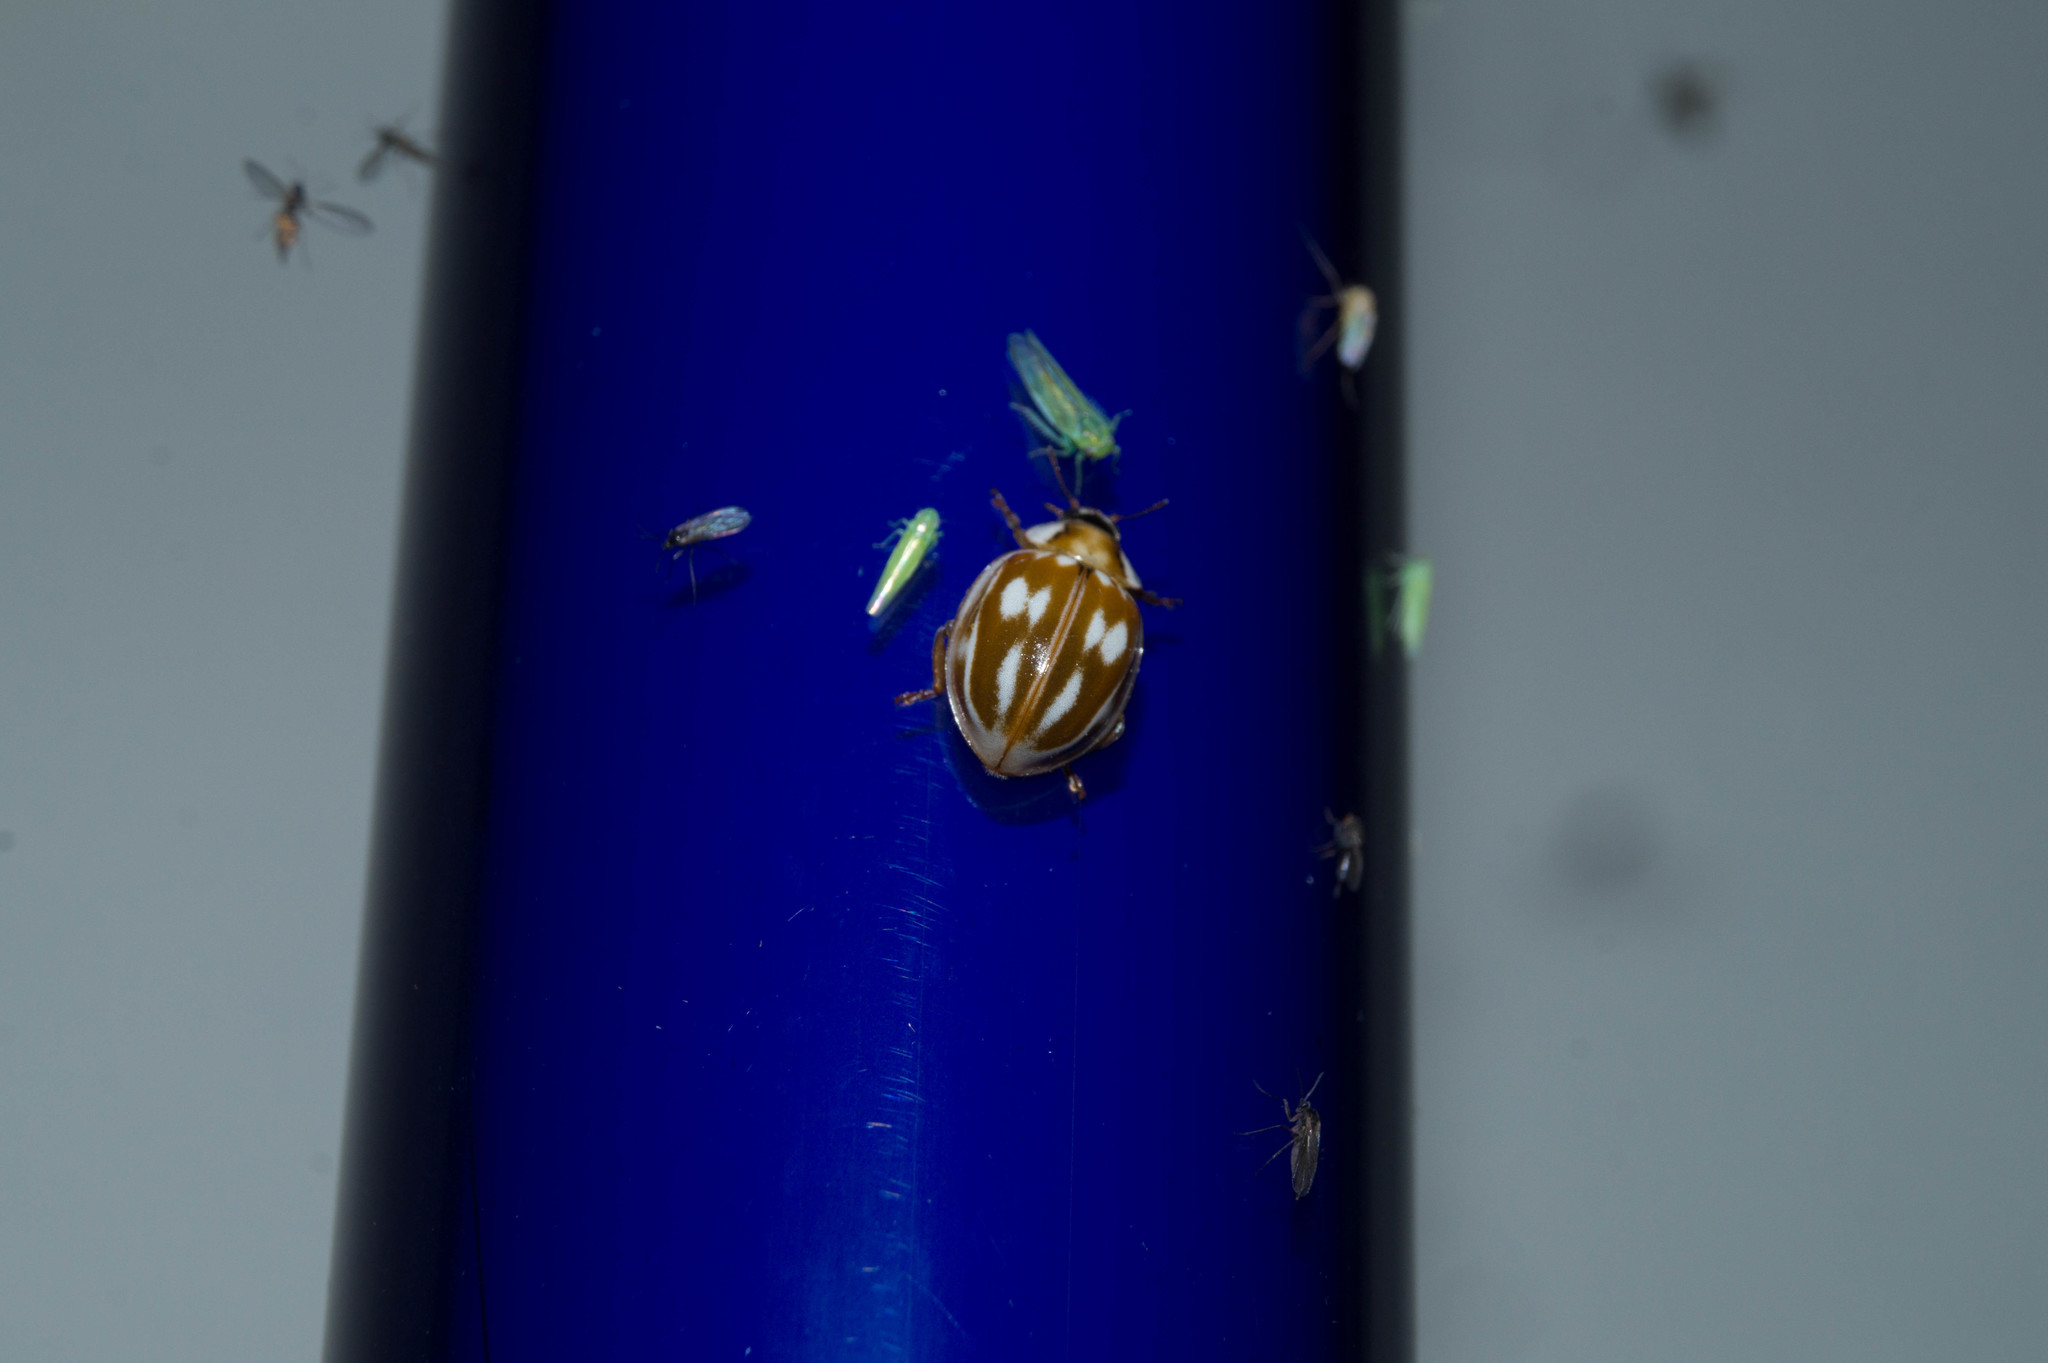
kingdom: Animalia
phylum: Arthropoda
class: Insecta
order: Coleoptera
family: Coccinellidae
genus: Myzia
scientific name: Myzia oblongoguttata
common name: Striped ladybird
